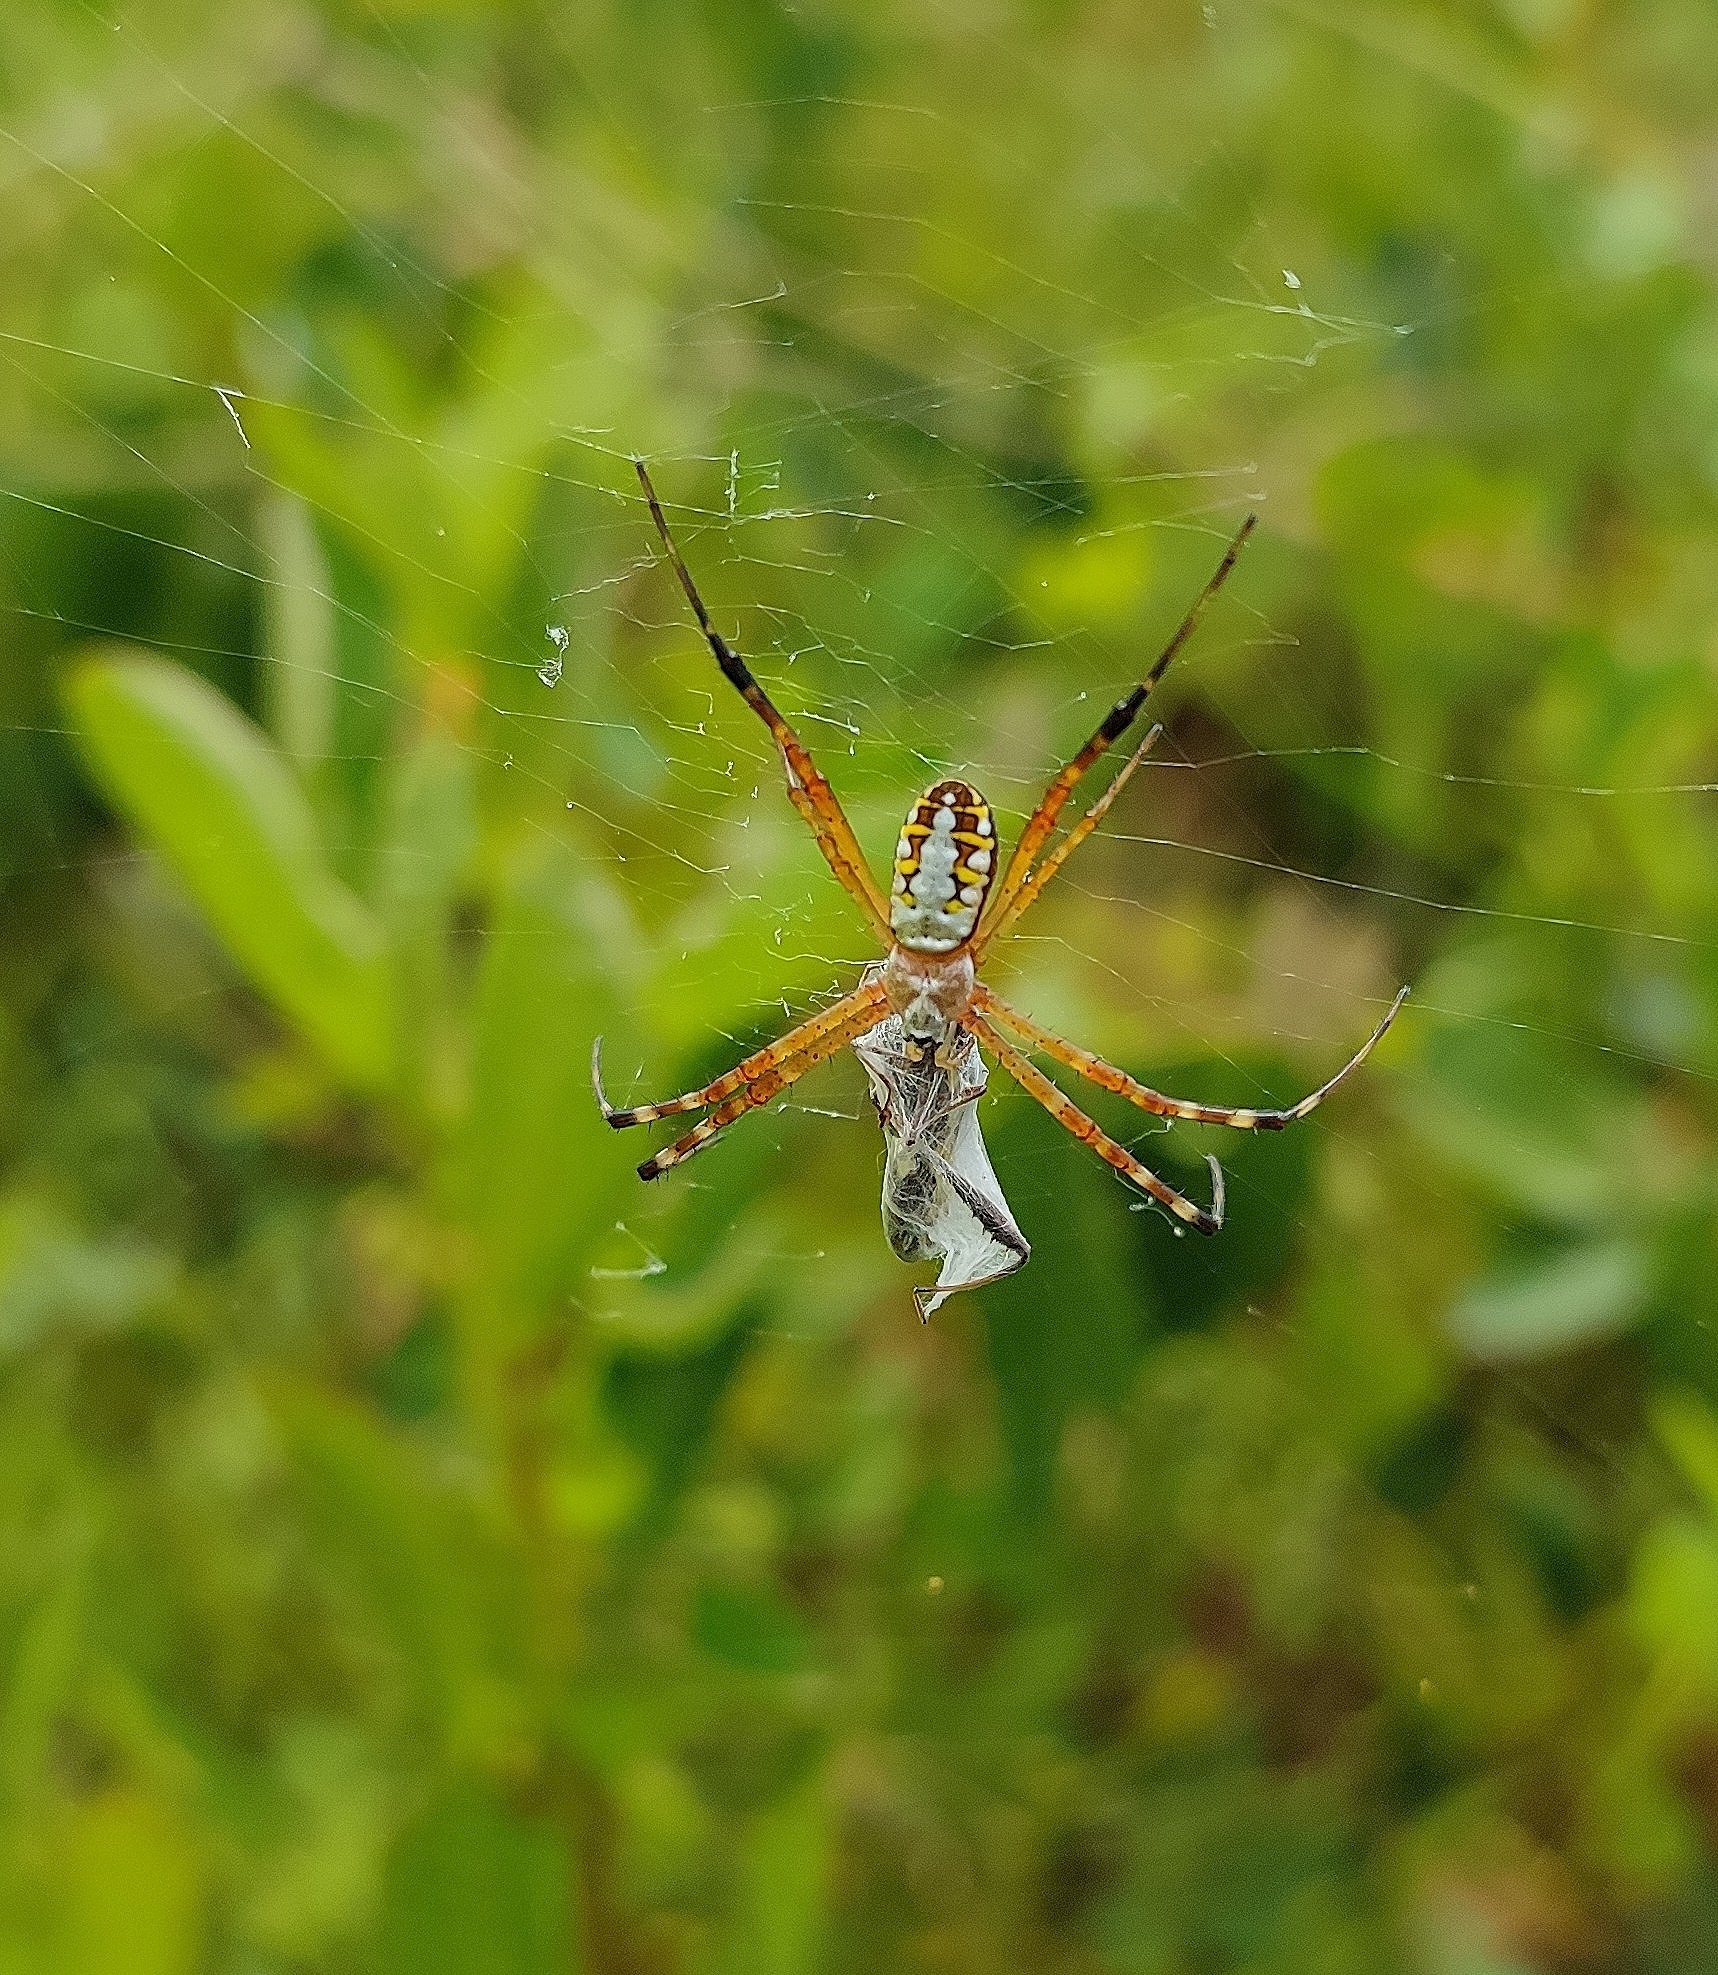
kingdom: Animalia
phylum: Arthropoda
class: Arachnida
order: Araneae
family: Araneidae
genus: Argiope
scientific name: Argiope catenulata
